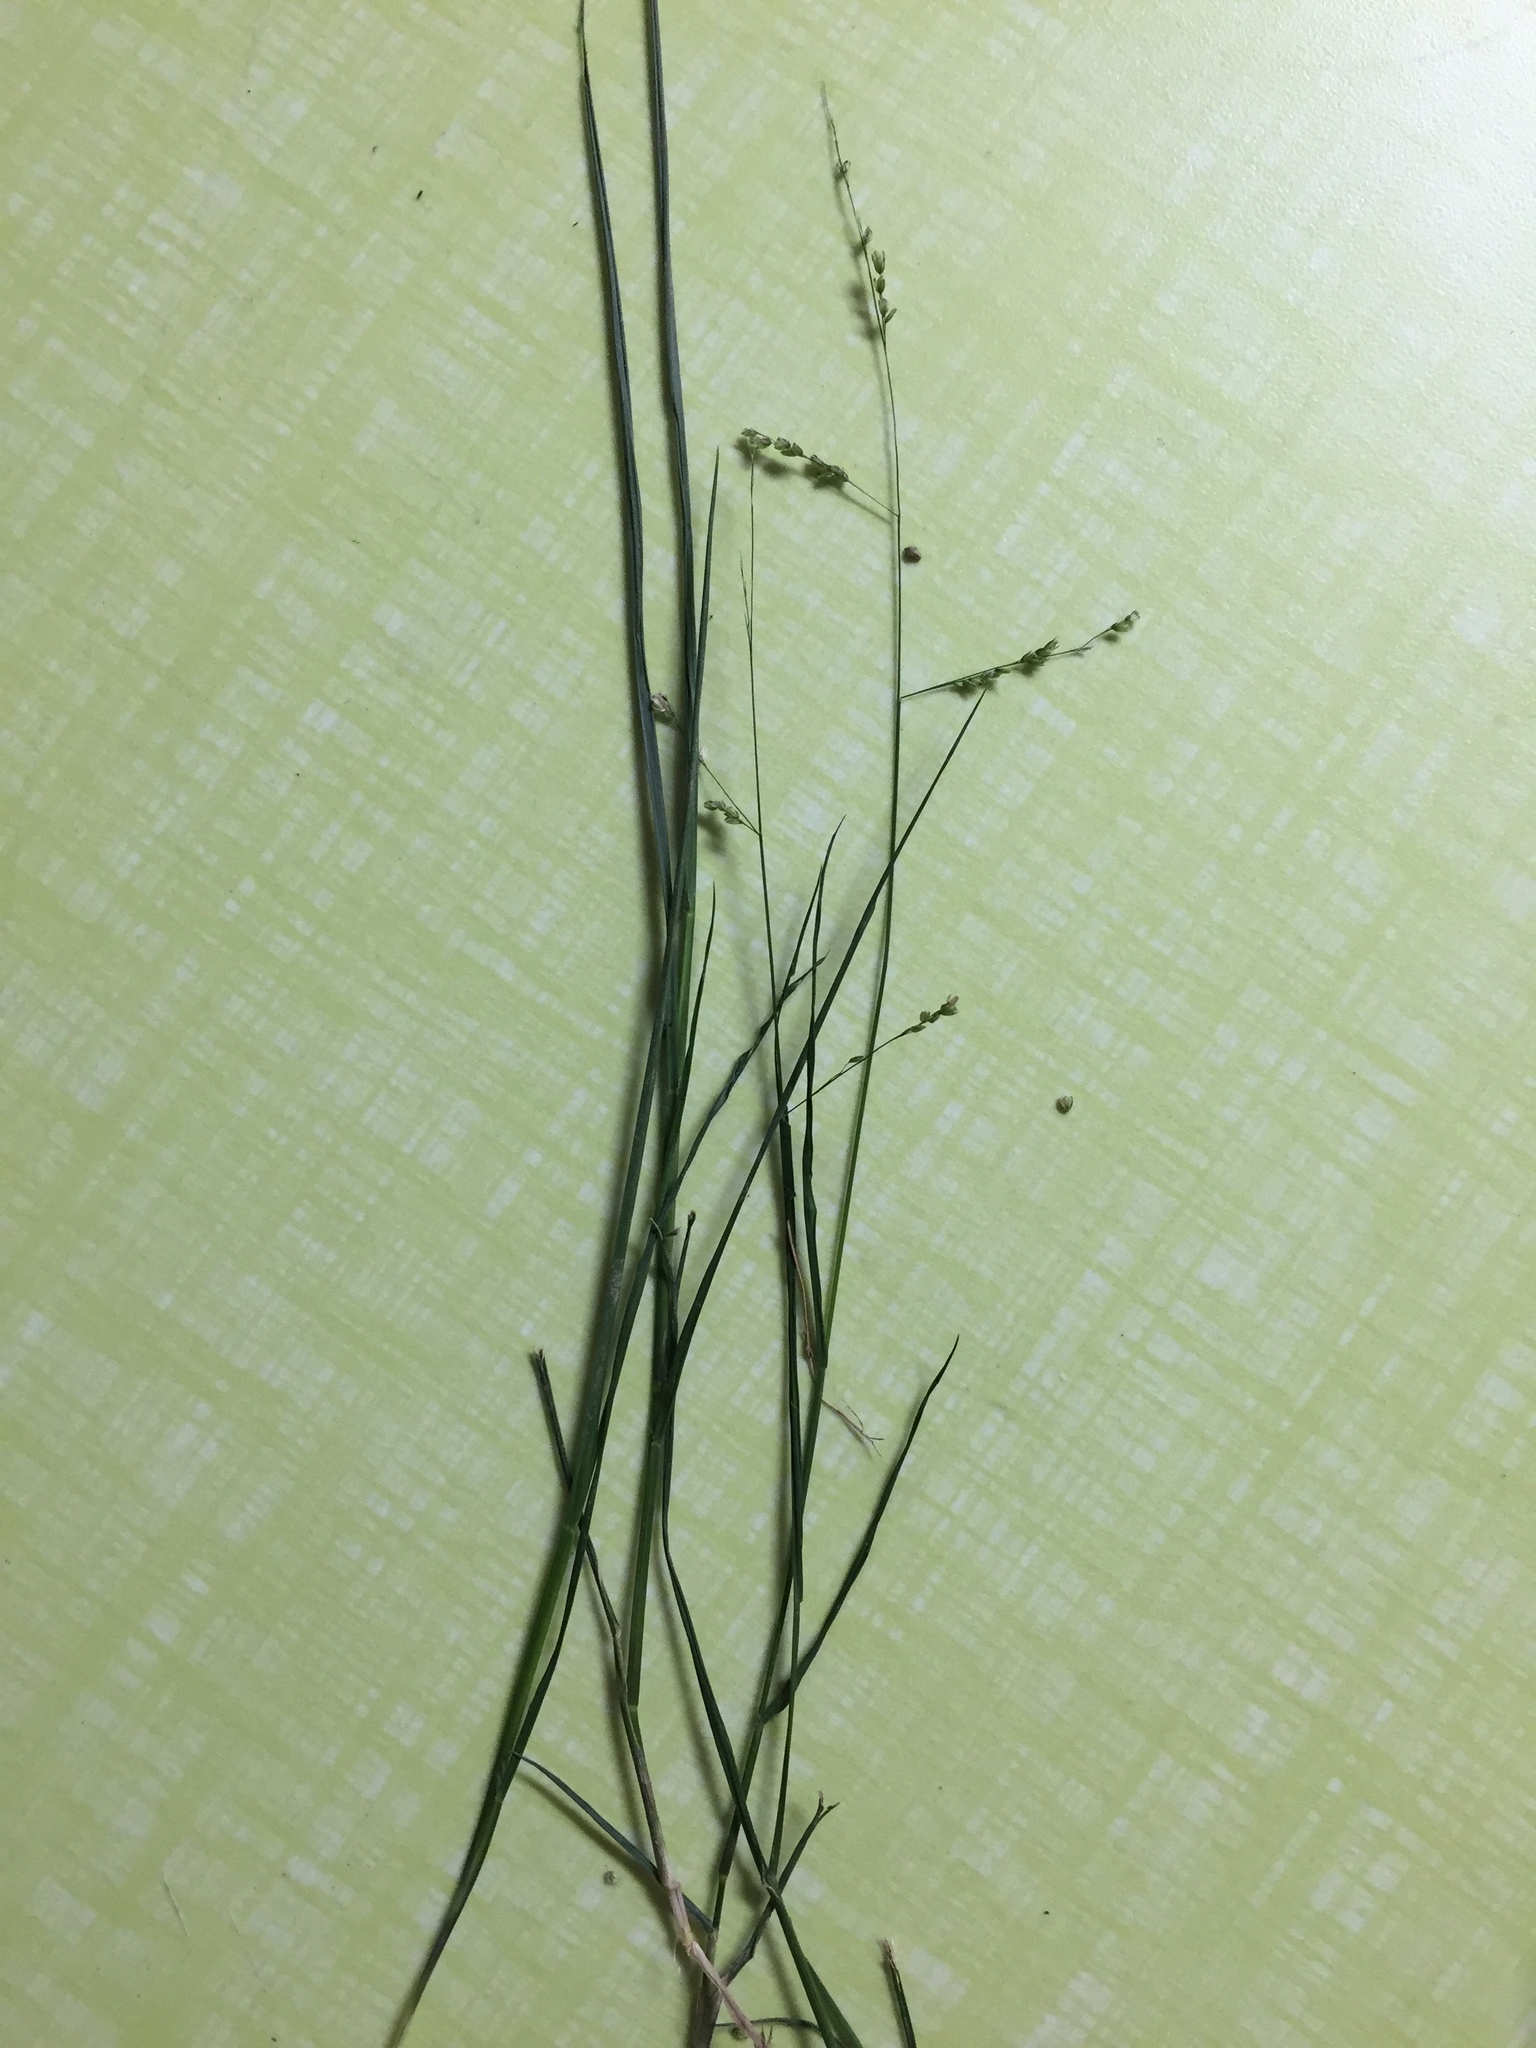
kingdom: Plantae
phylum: Tracheophyta
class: Liliopsida
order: Poales
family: Poaceae
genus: Steinchisma
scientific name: Steinchisma hians
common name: Gaping panic grass
